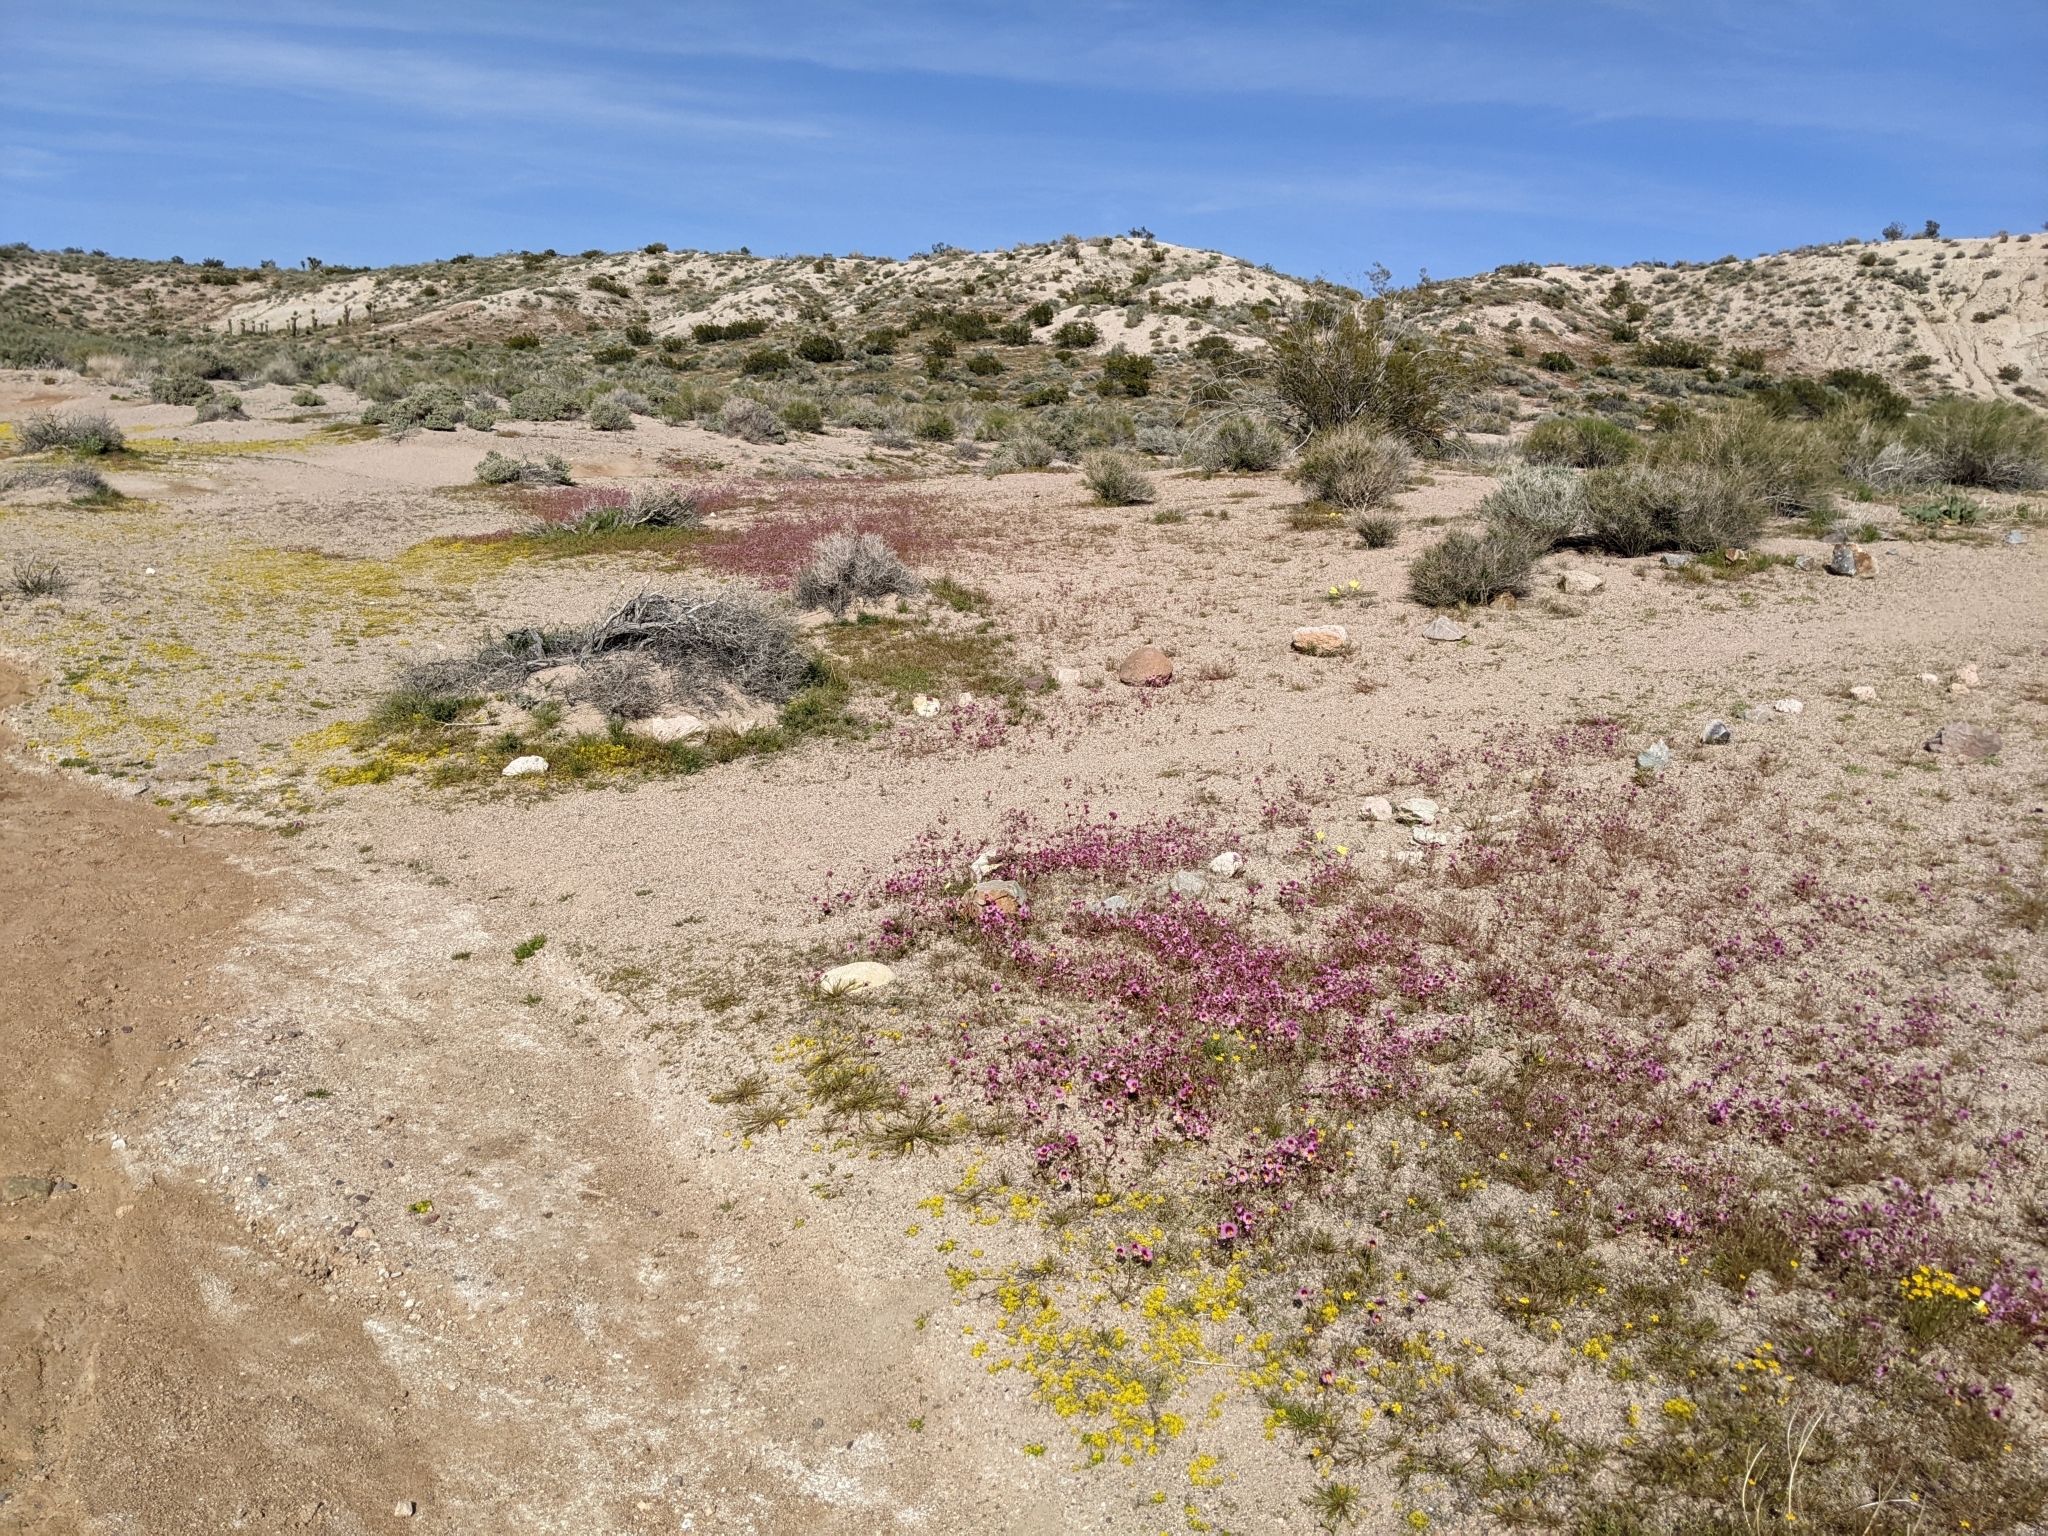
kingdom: Plantae
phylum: Tracheophyta
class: Magnoliopsida
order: Lamiales
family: Phrymaceae
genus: Erythranthe
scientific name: Erythranthe rhodopetra
